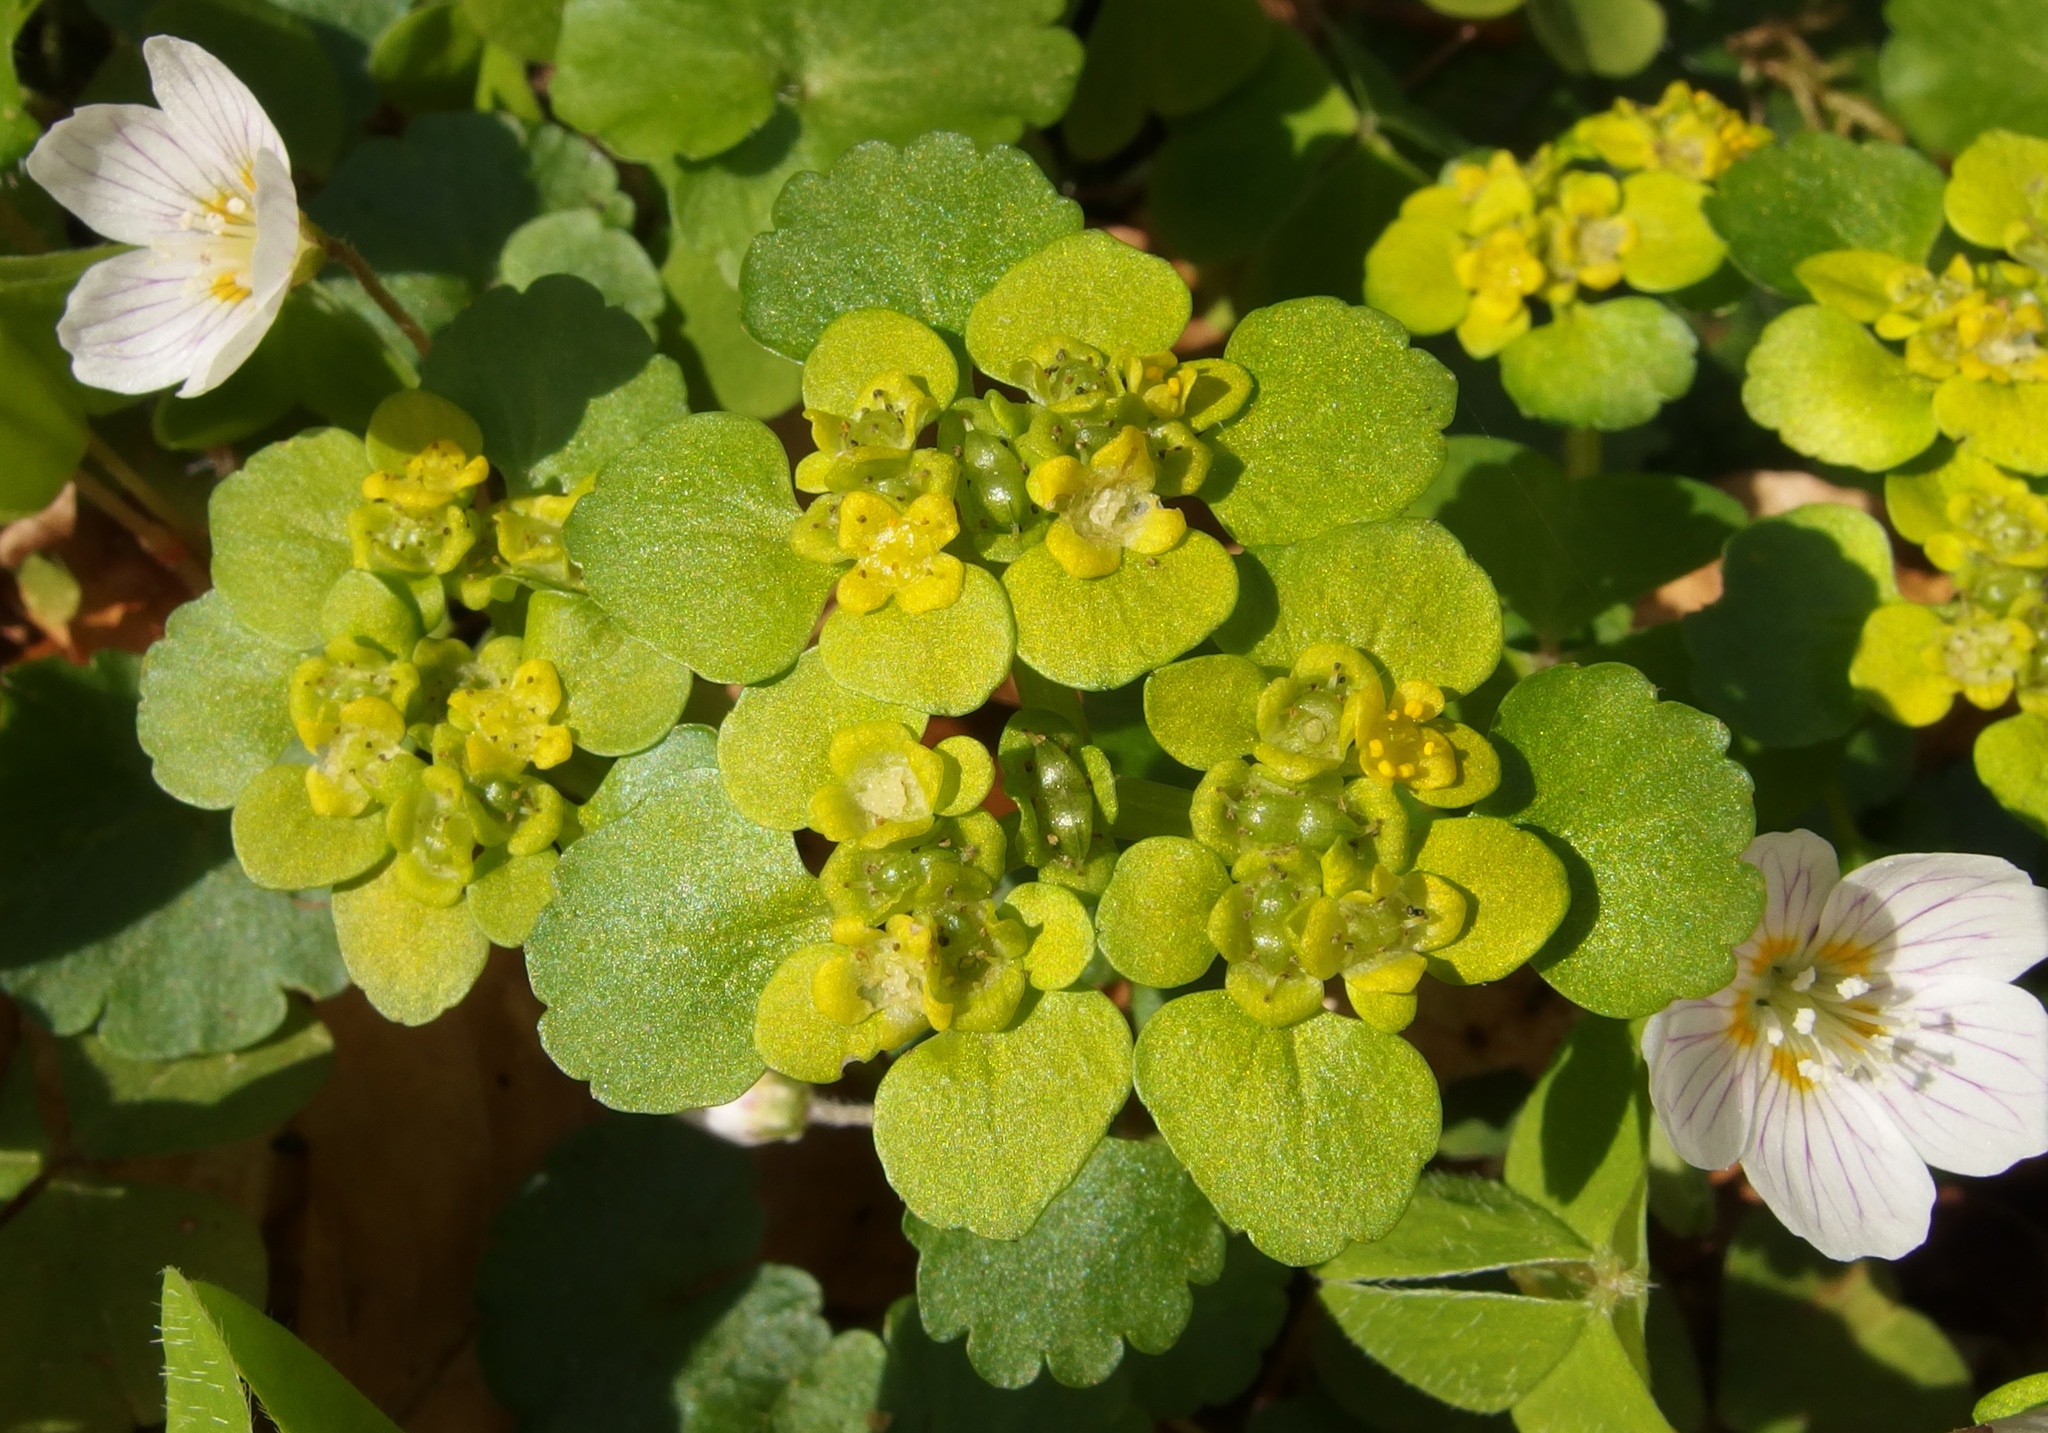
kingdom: Plantae
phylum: Tracheophyta
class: Magnoliopsida
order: Saxifragales
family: Saxifragaceae
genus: Chrysosplenium
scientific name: Chrysosplenium alternifolium
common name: Alternate-leaved golden-saxifrage
